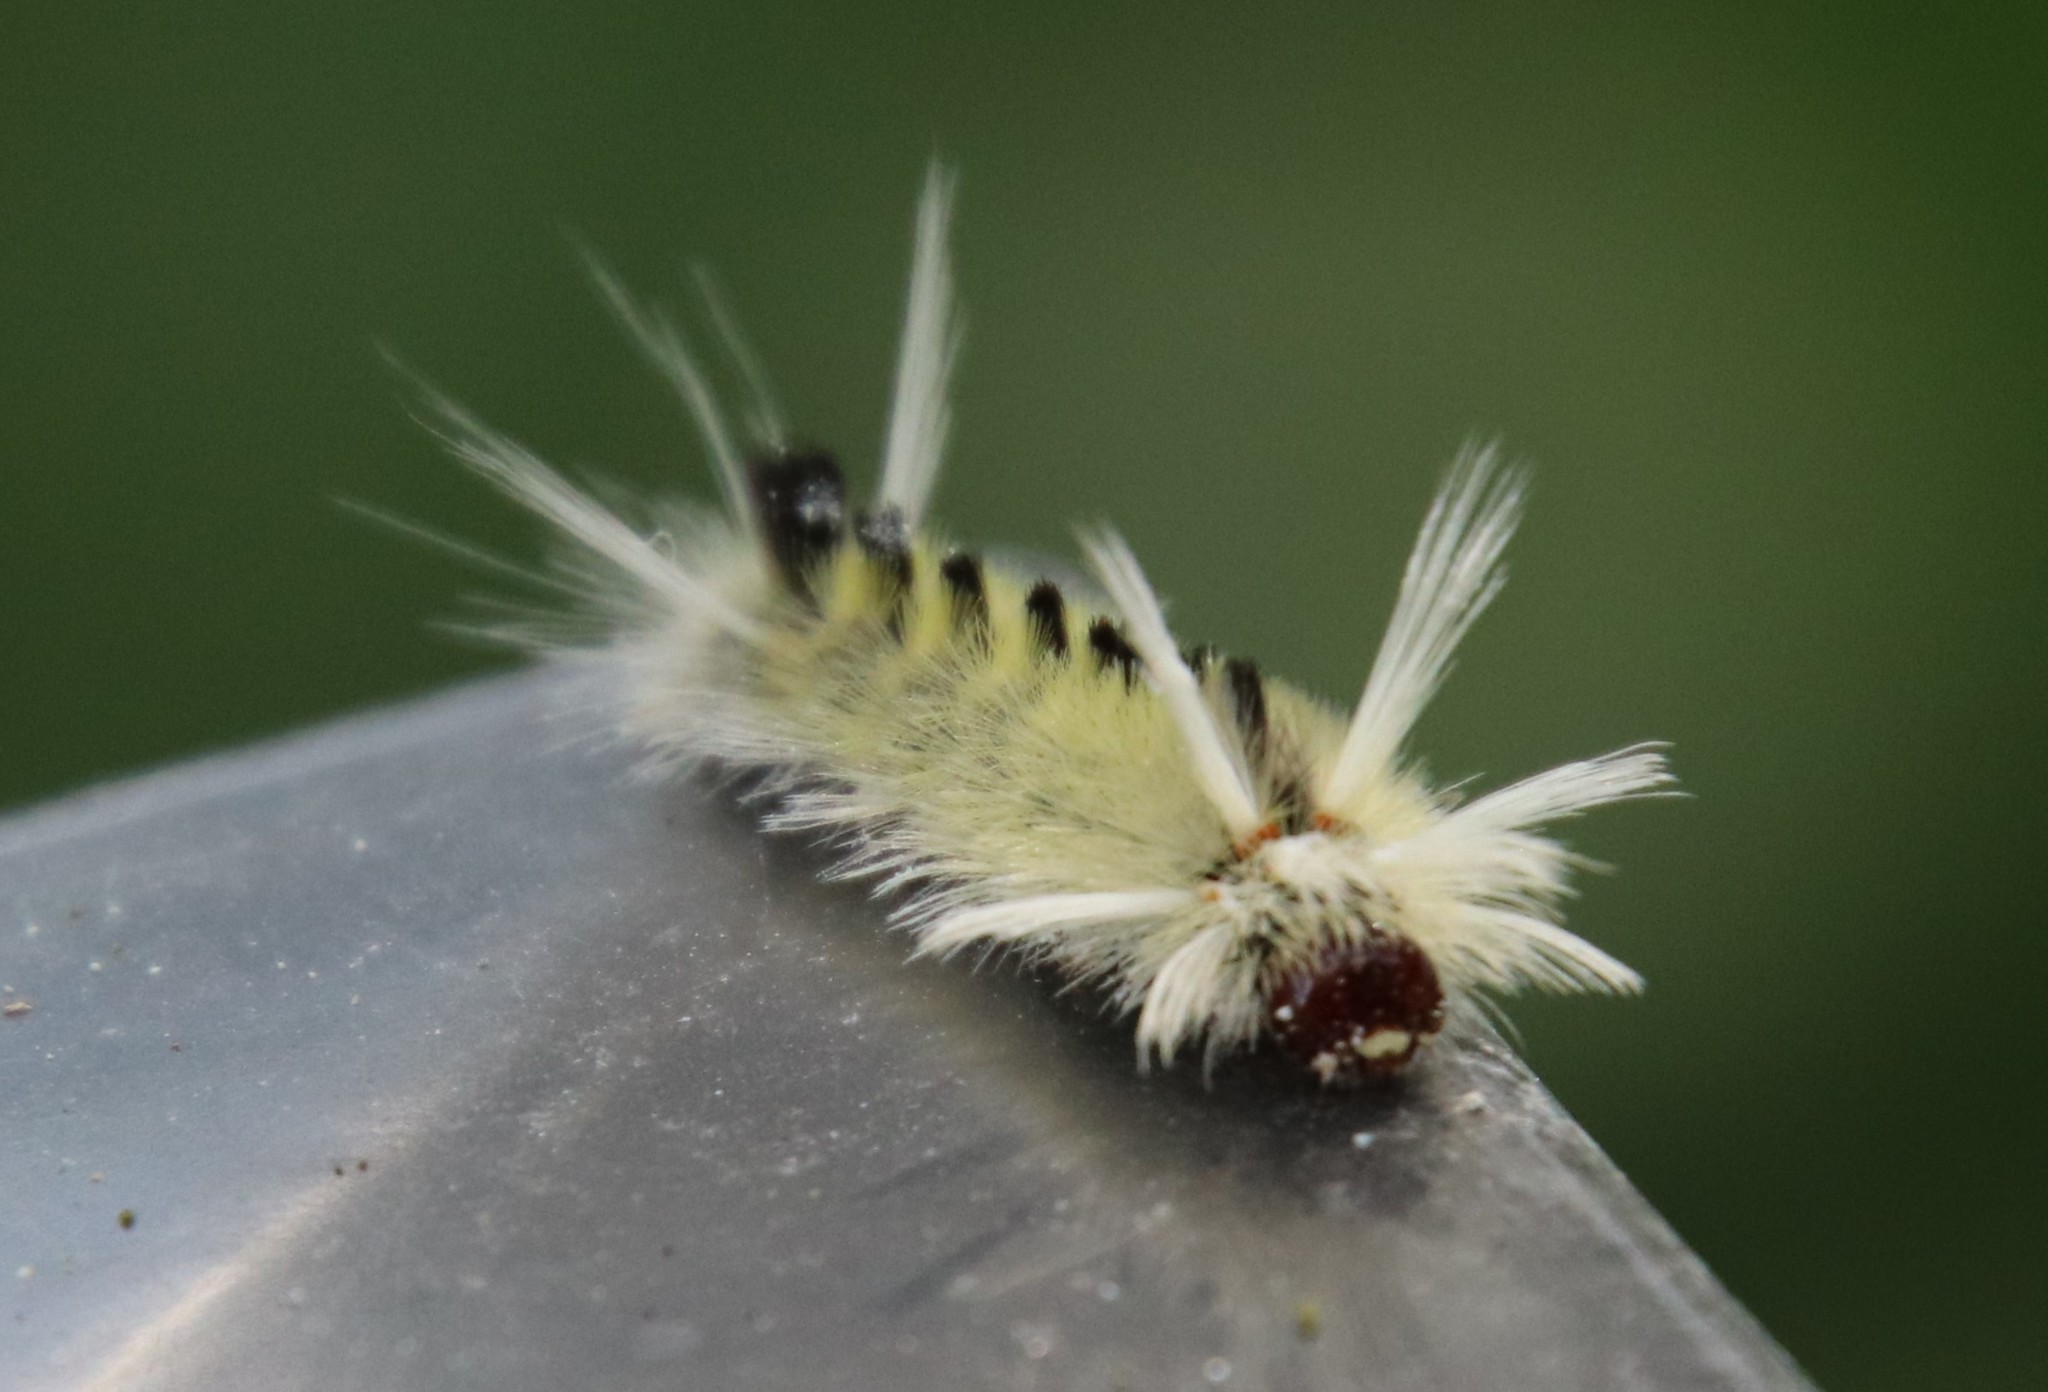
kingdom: Animalia
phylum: Arthropoda
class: Insecta
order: Lepidoptera
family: Erebidae
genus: Halysidota
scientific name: Halysidota schausi
